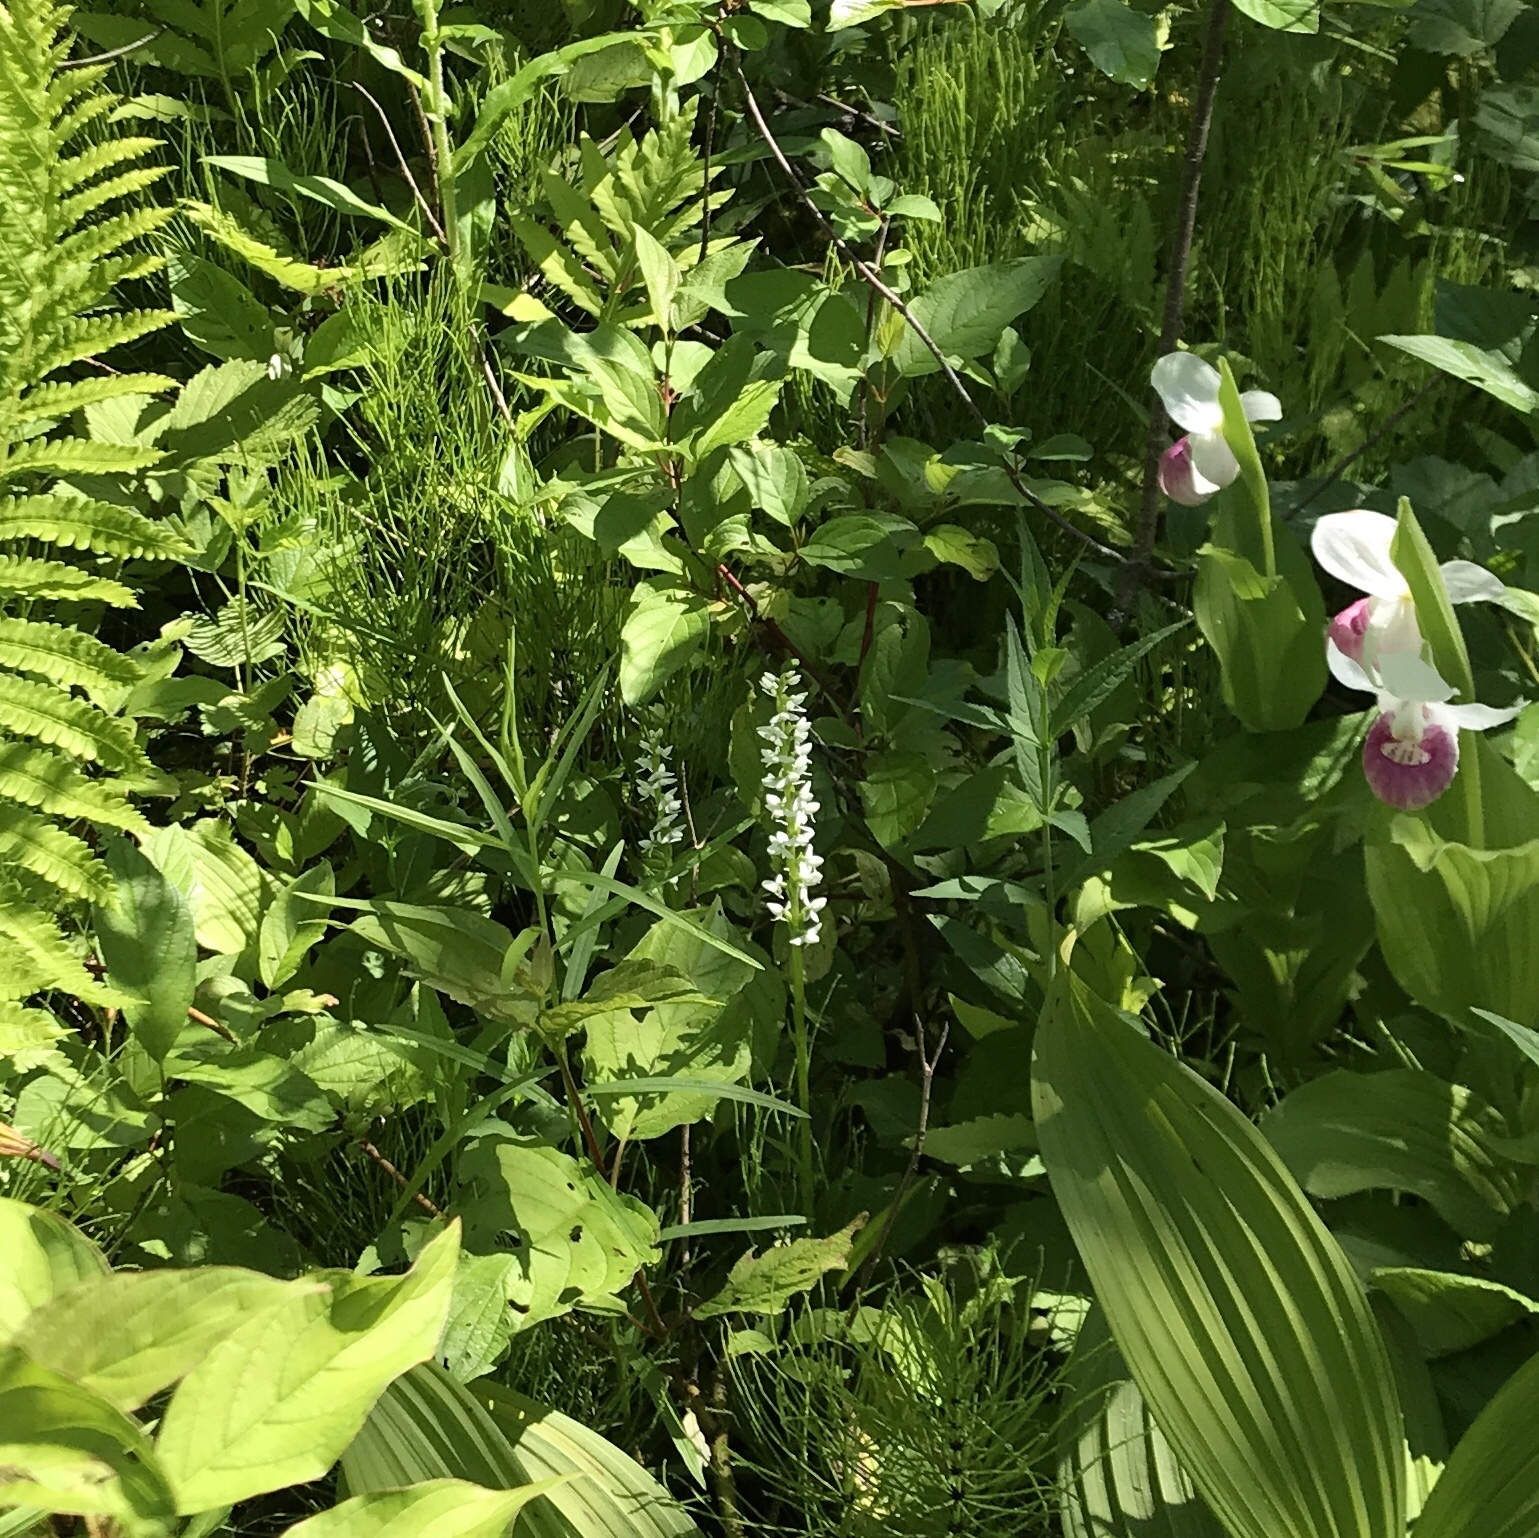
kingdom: Plantae
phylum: Tracheophyta
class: Liliopsida
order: Asparagales
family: Orchidaceae
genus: Platanthera
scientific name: Platanthera dilatata
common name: Bog candles
